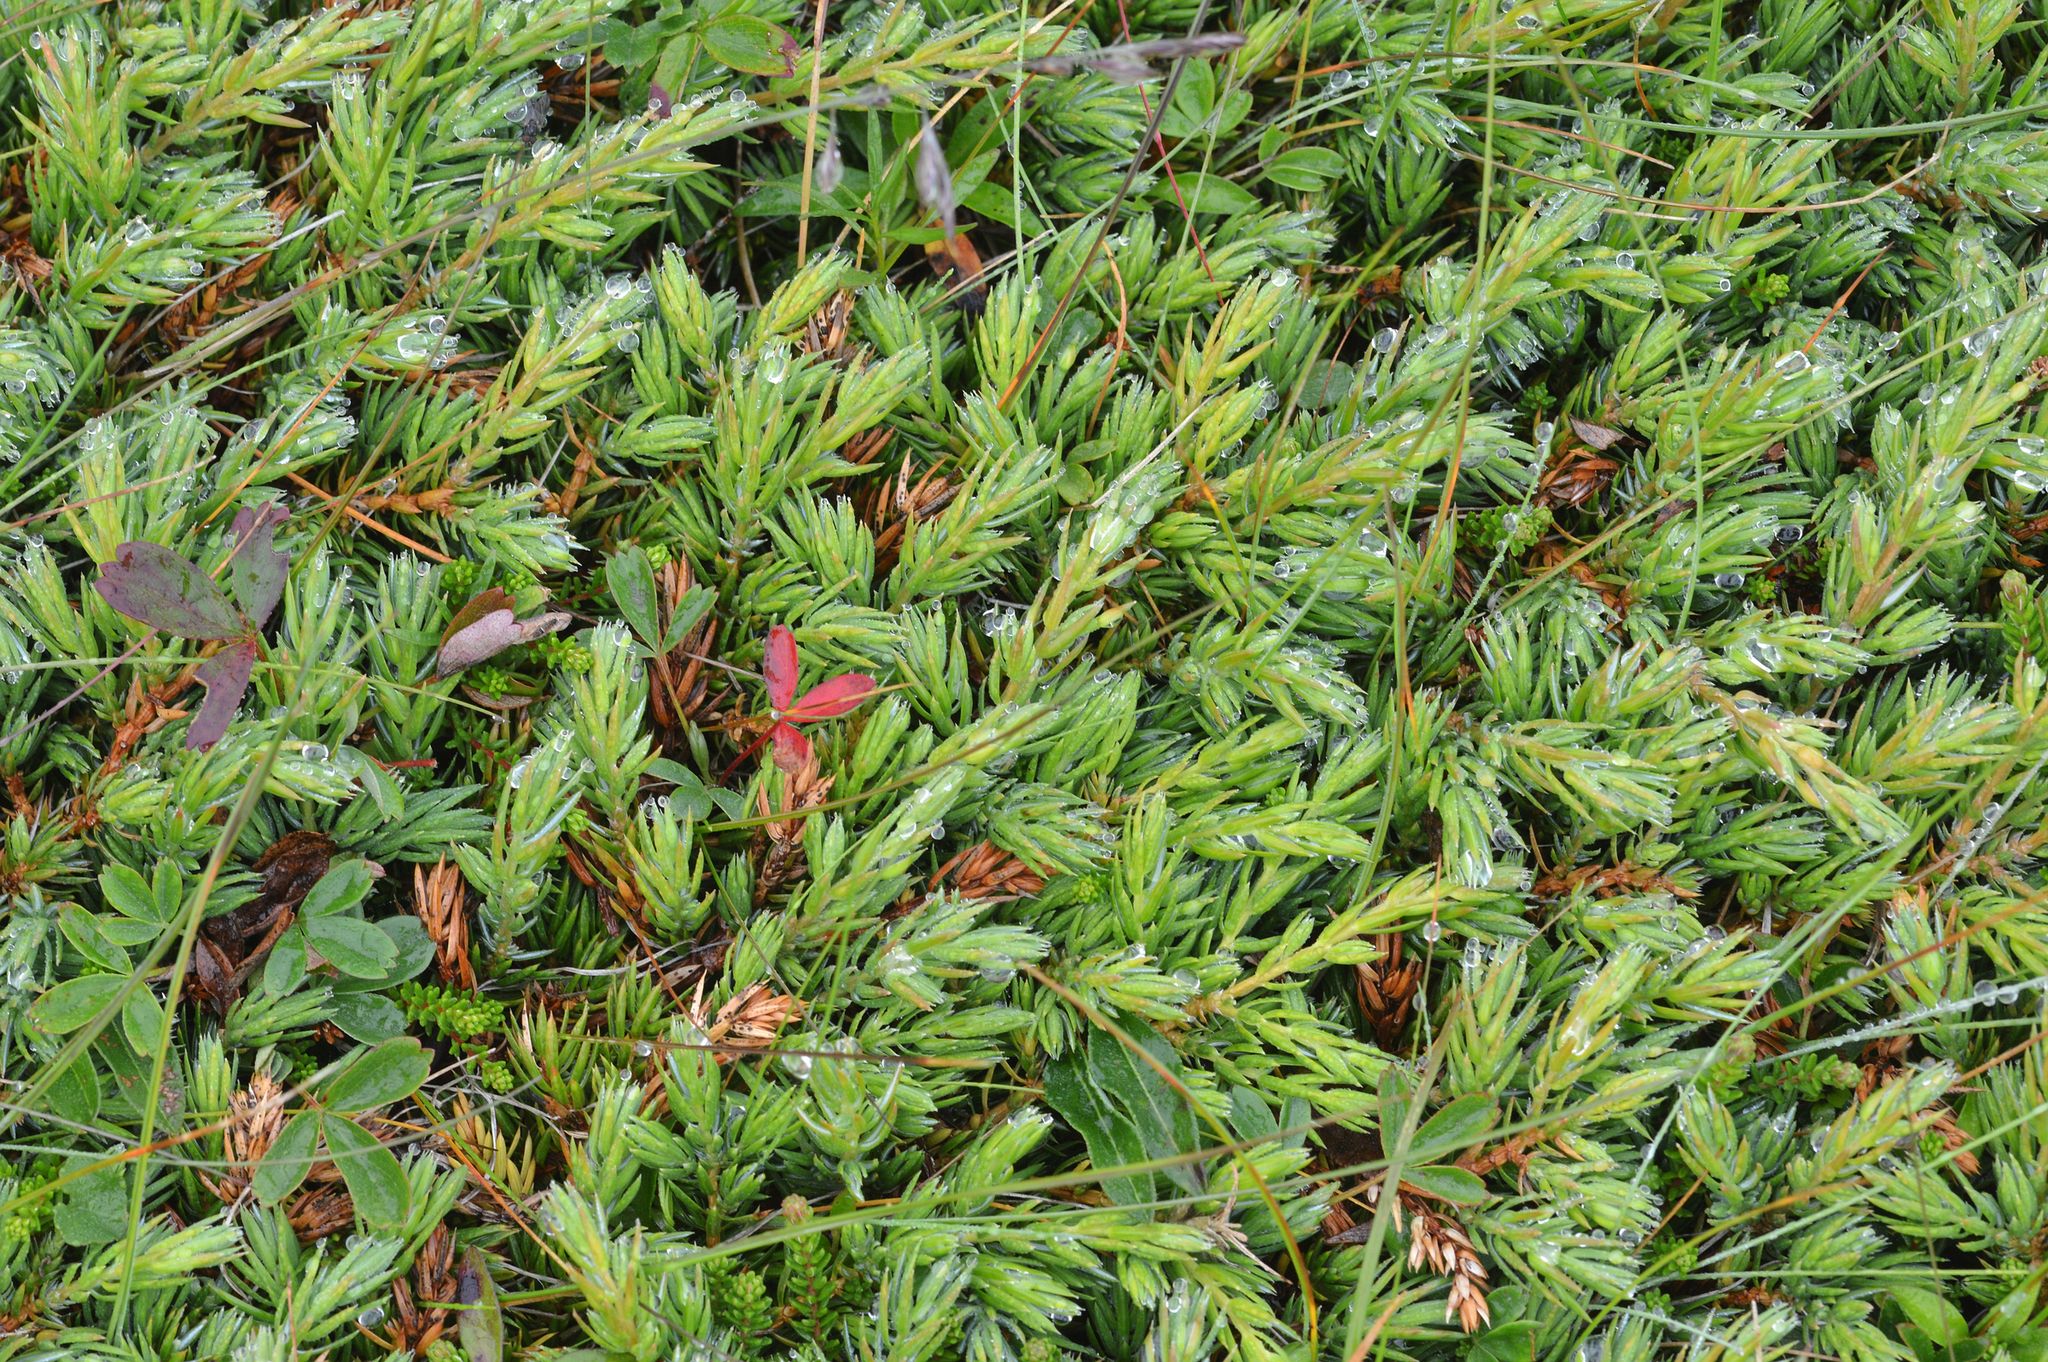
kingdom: Plantae
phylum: Tracheophyta
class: Pinopsida
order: Pinales
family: Cupressaceae
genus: Juniperus
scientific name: Juniperus communis
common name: Common juniper
